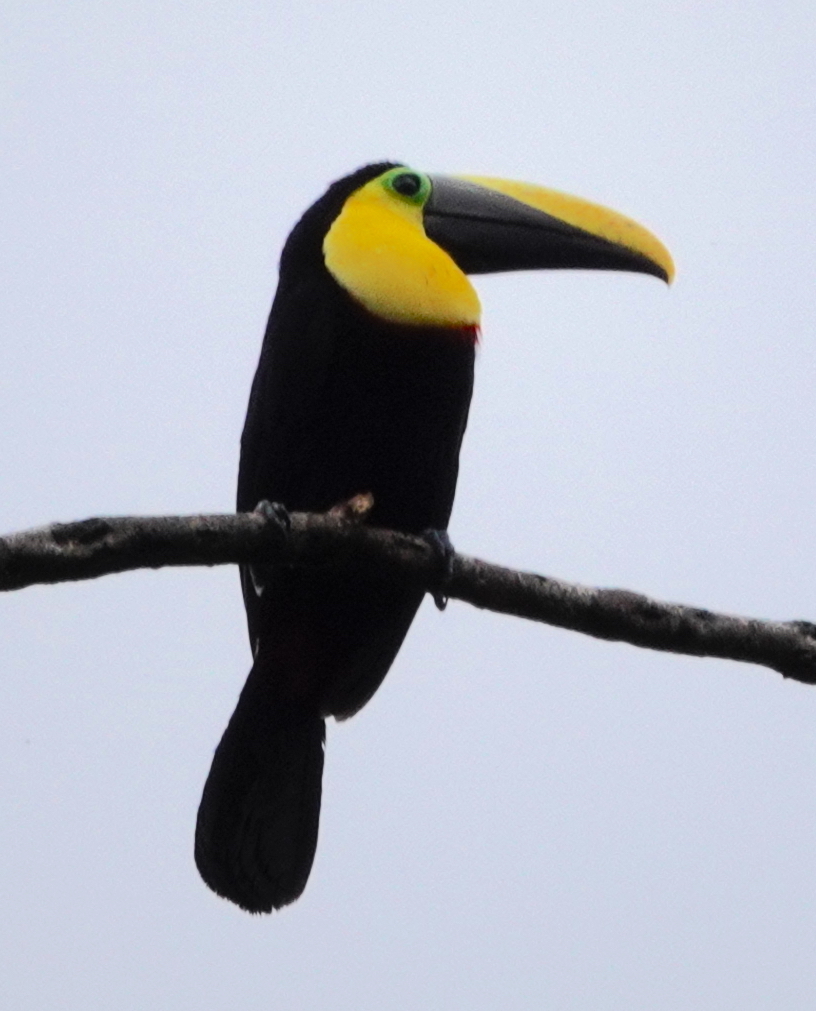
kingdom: Animalia
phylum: Chordata
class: Aves
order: Piciformes
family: Ramphastidae
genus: Ramphastos
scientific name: Ramphastos brevis
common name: Choco toucan
